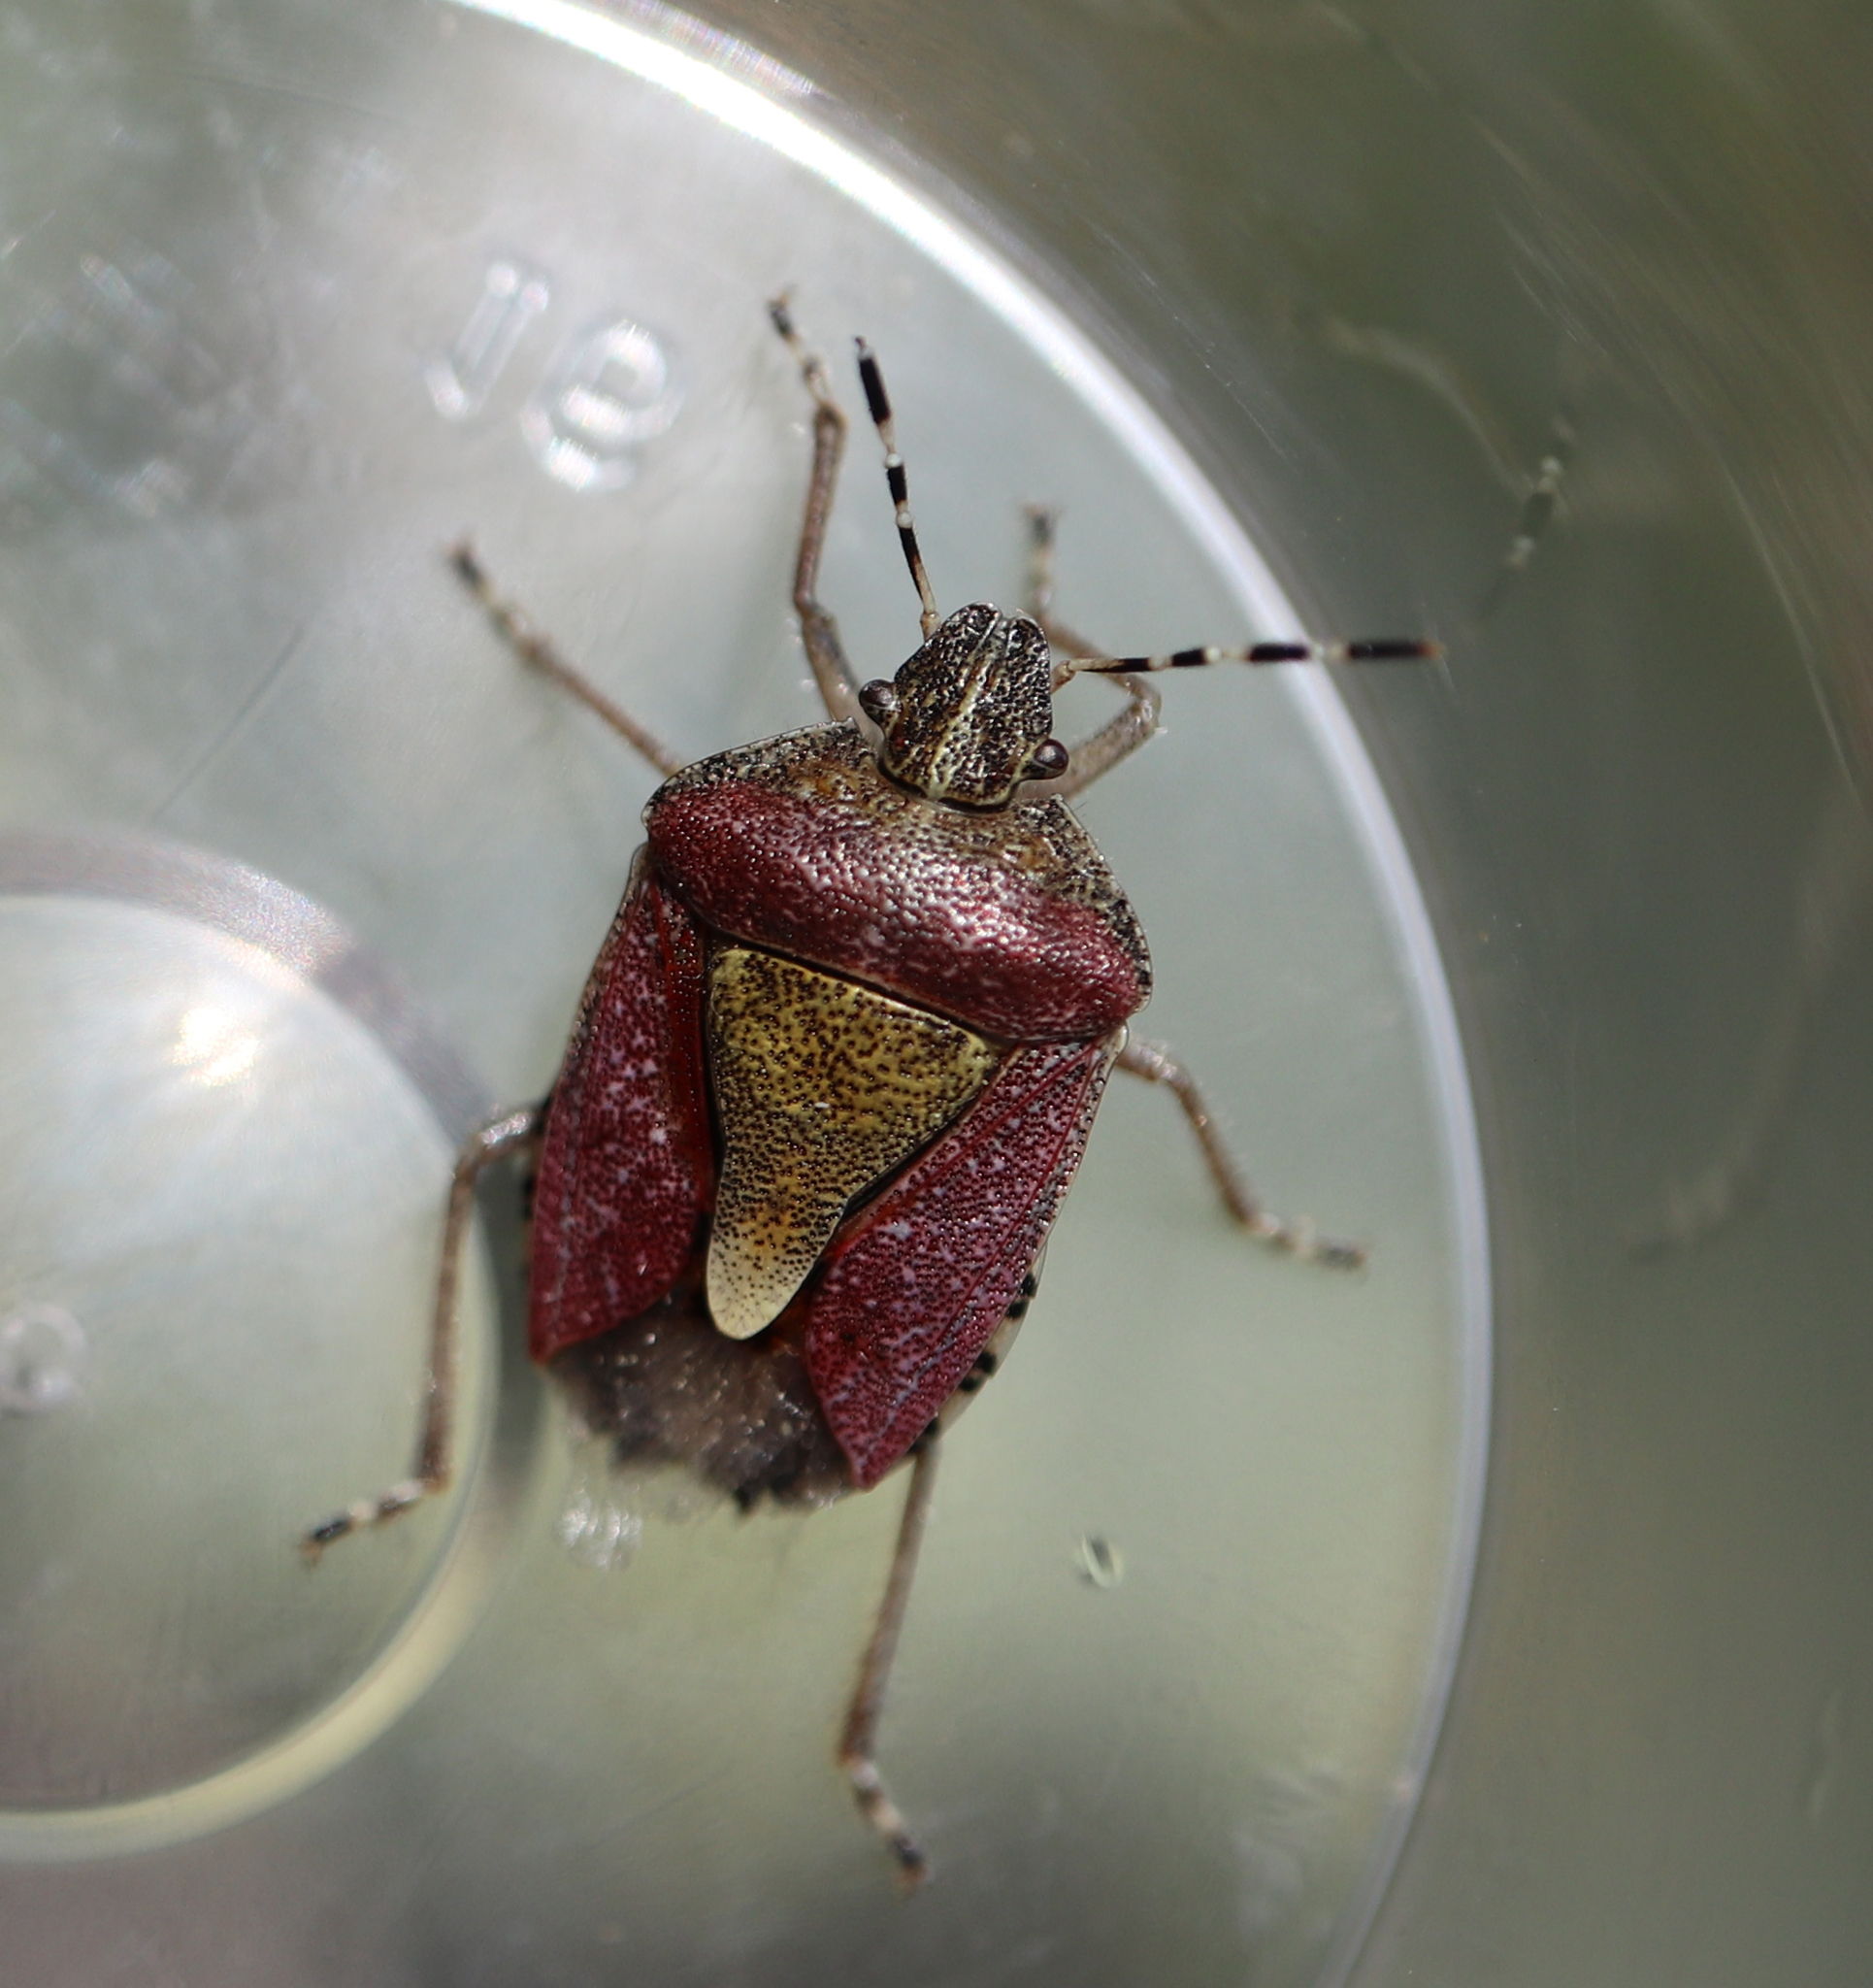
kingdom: Animalia
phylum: Arthropoda
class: Insecta
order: Hemiptera
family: Pentatomidae
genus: Dolycoris
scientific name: Dolycoris baccarum
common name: Sloe bug
